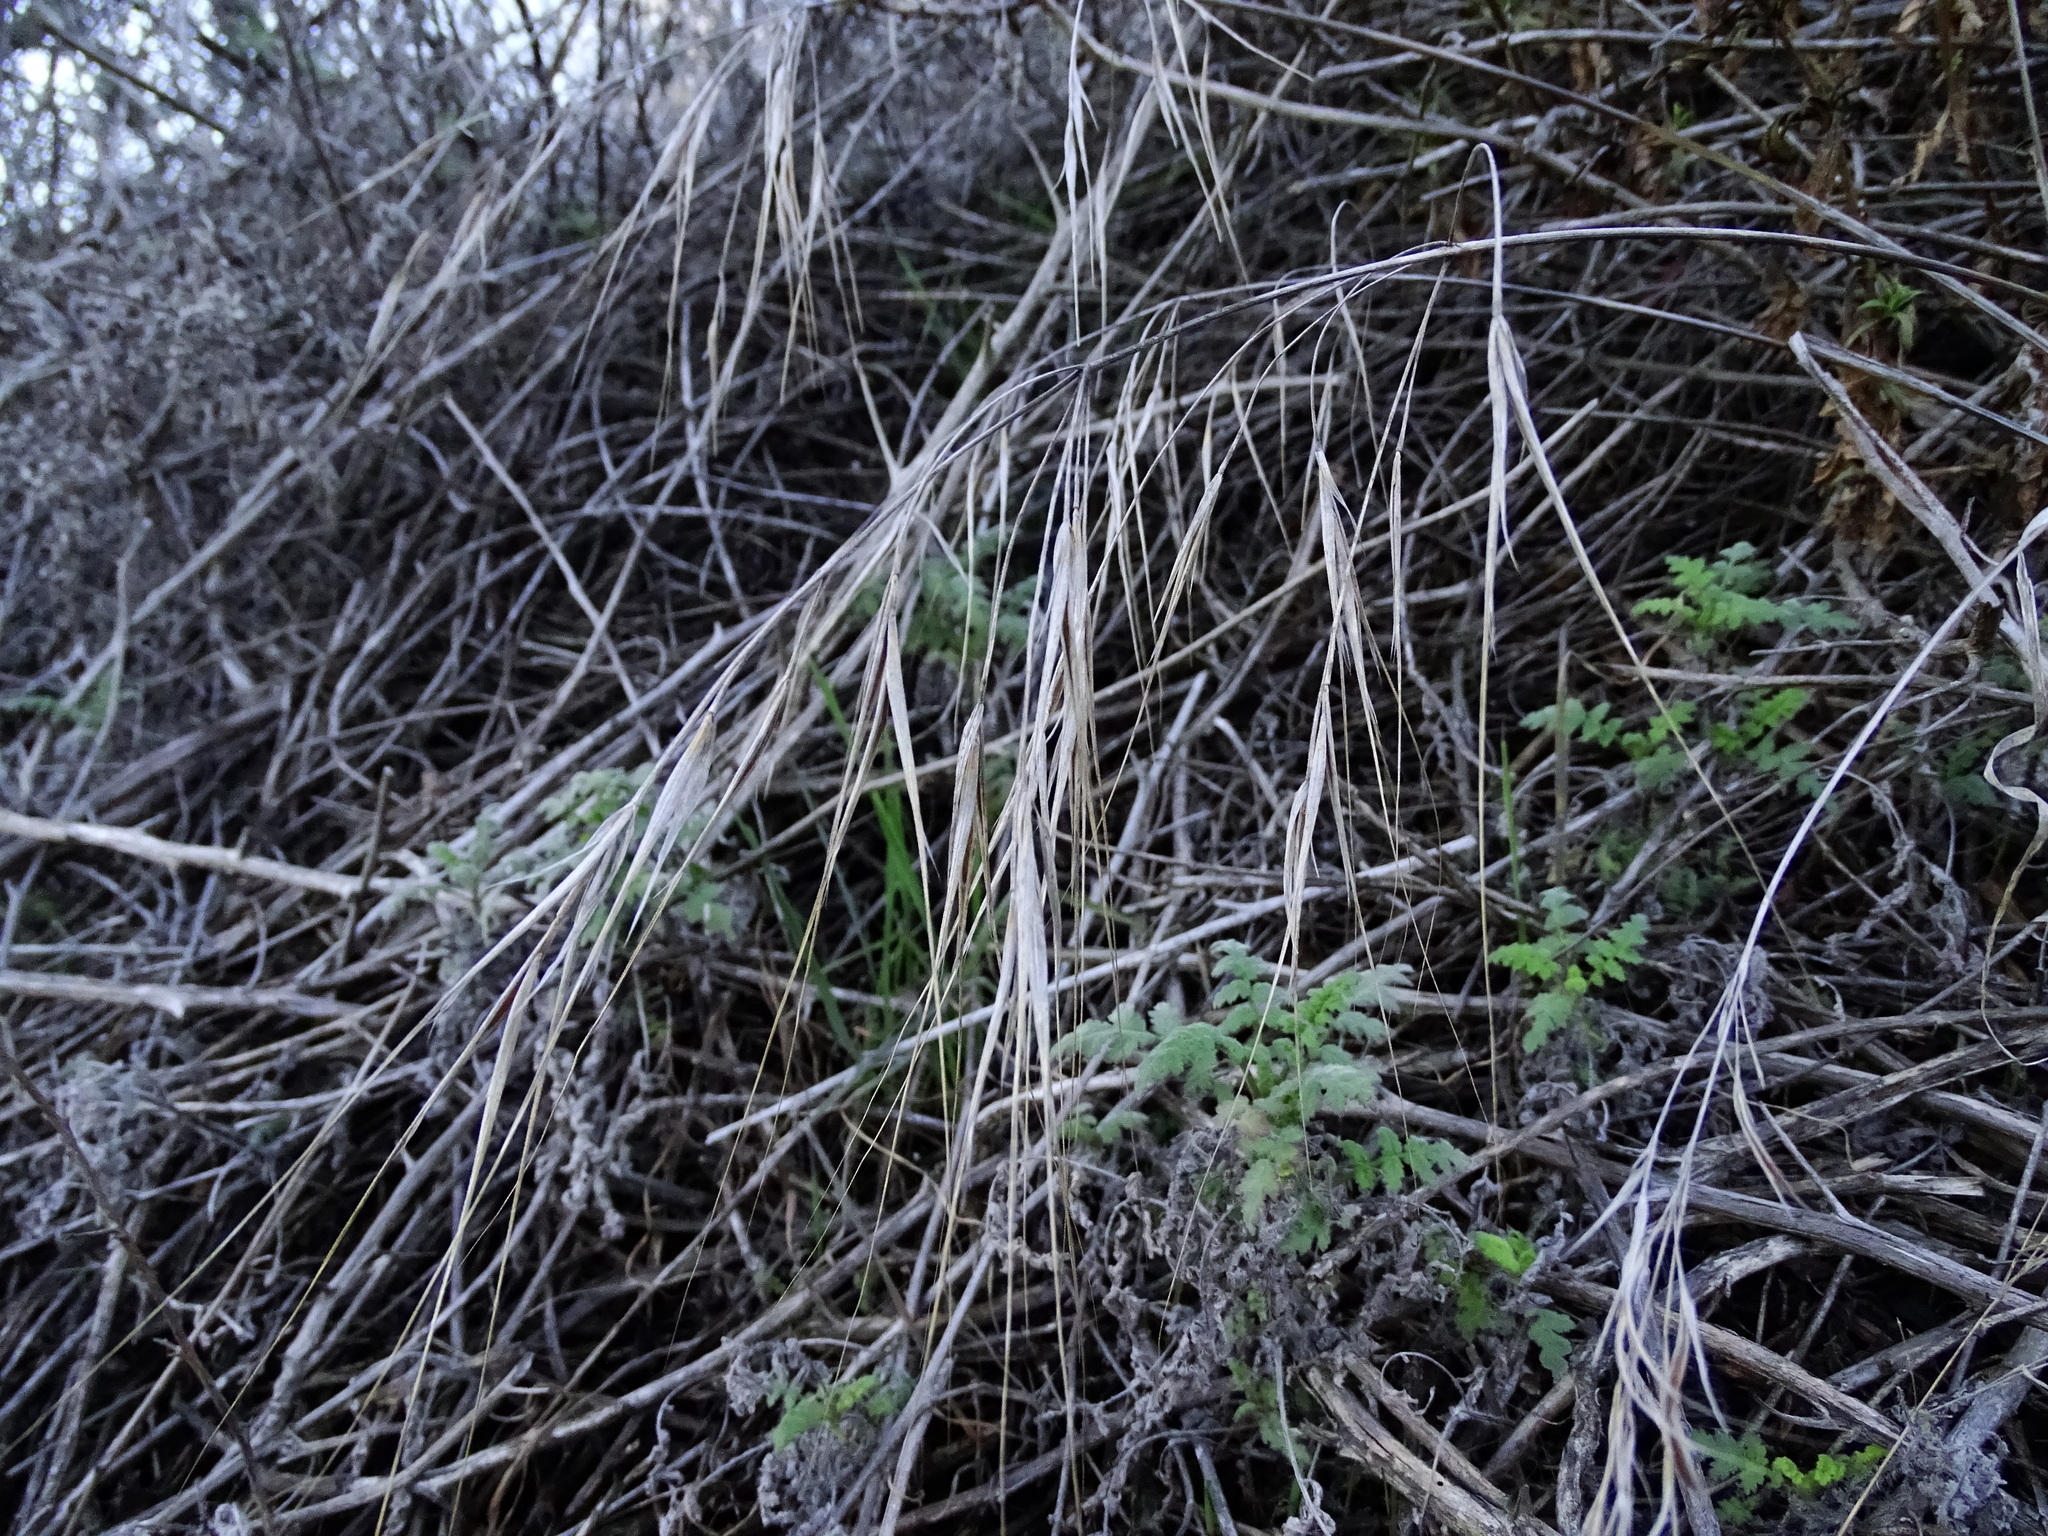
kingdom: Plantae
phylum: Tracheophyta
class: Liliopsida
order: Poales
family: Poaceae
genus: Bromus
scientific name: Bromus diandrus
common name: Ripgut brome
